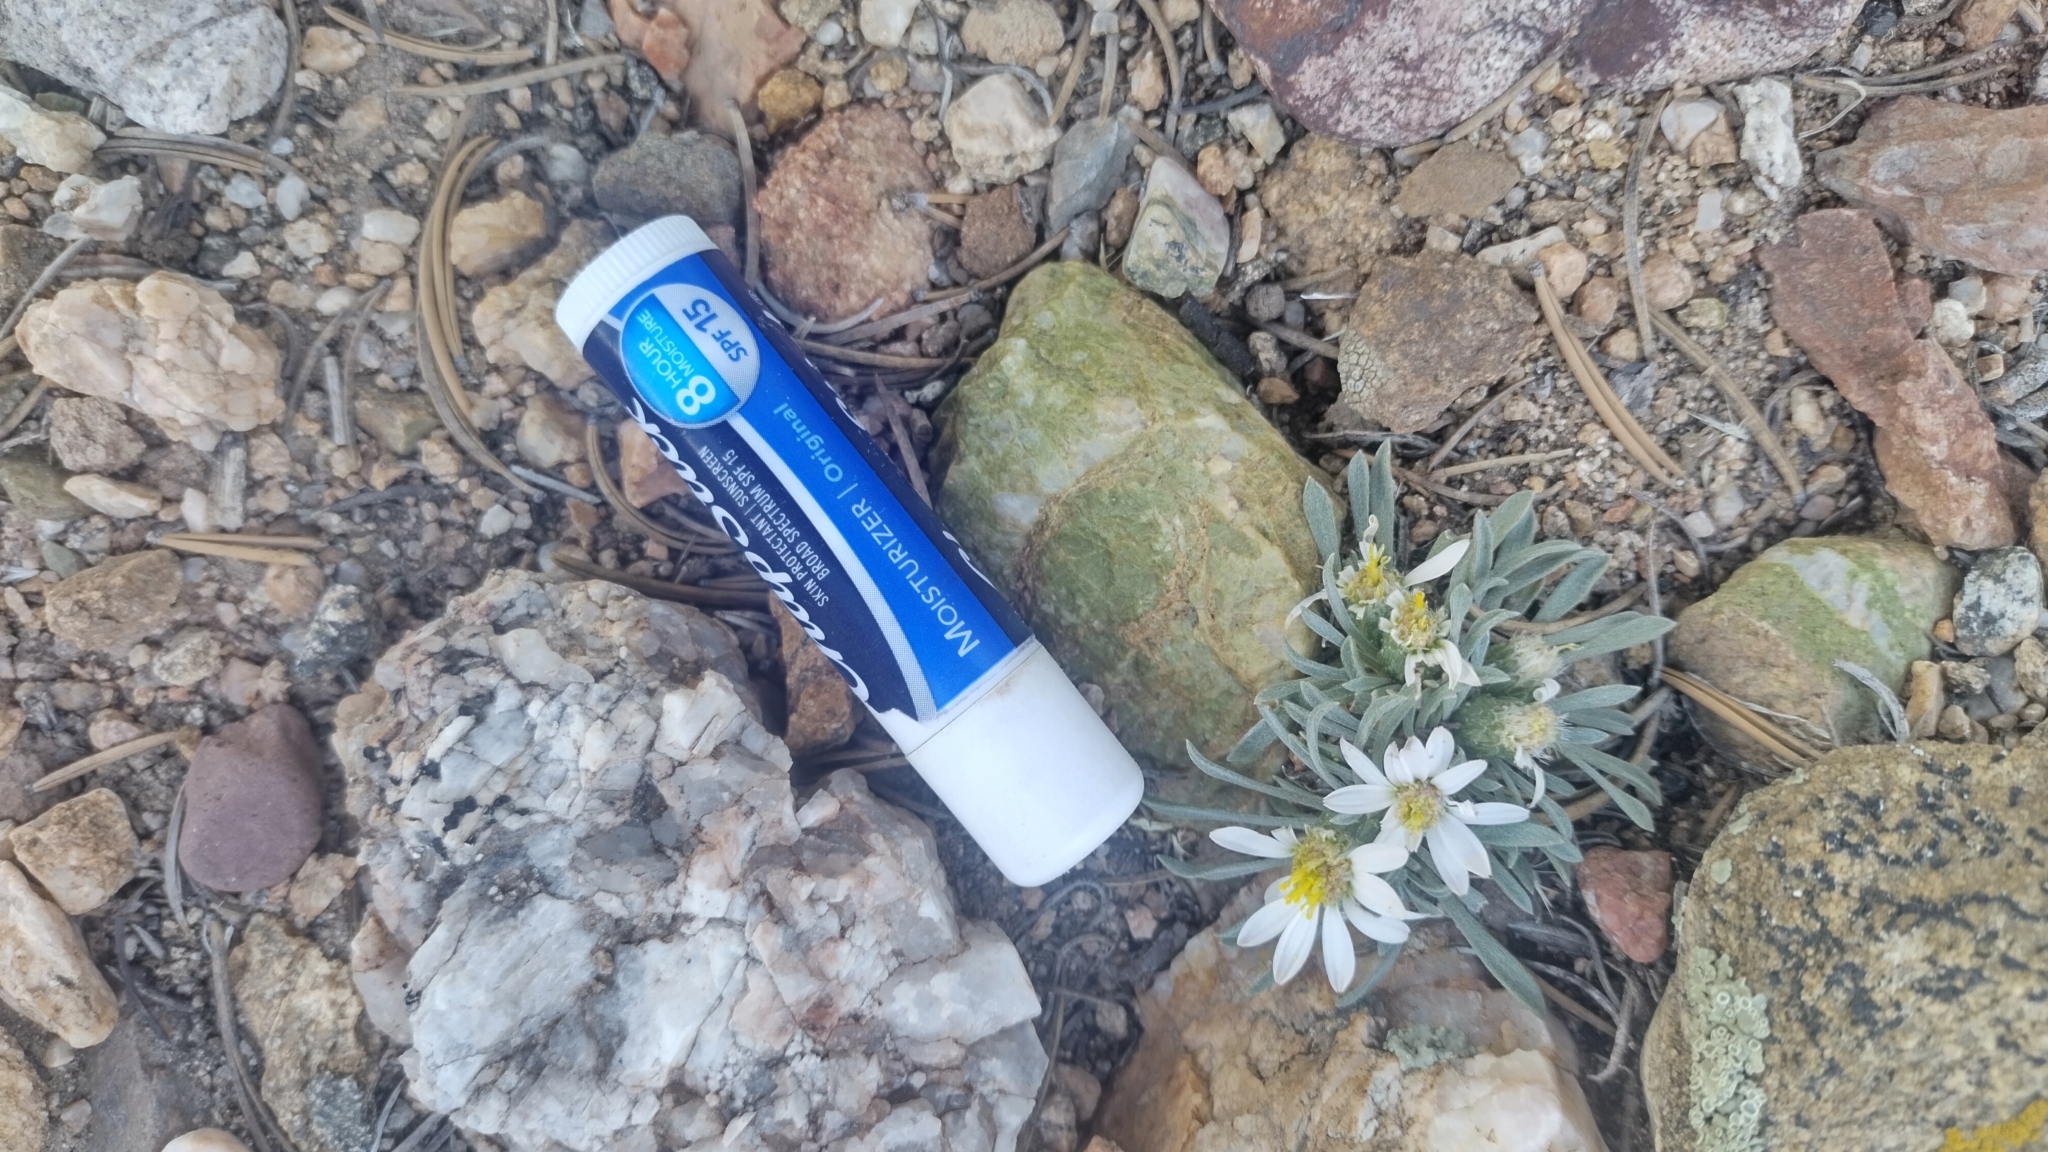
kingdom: Plantae
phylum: Tracheophyta
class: Magnoliopsida
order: Asterales
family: Asteraceae
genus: Townsendia
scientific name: Townsendia hookeri
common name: Hooker's townsend daisy
